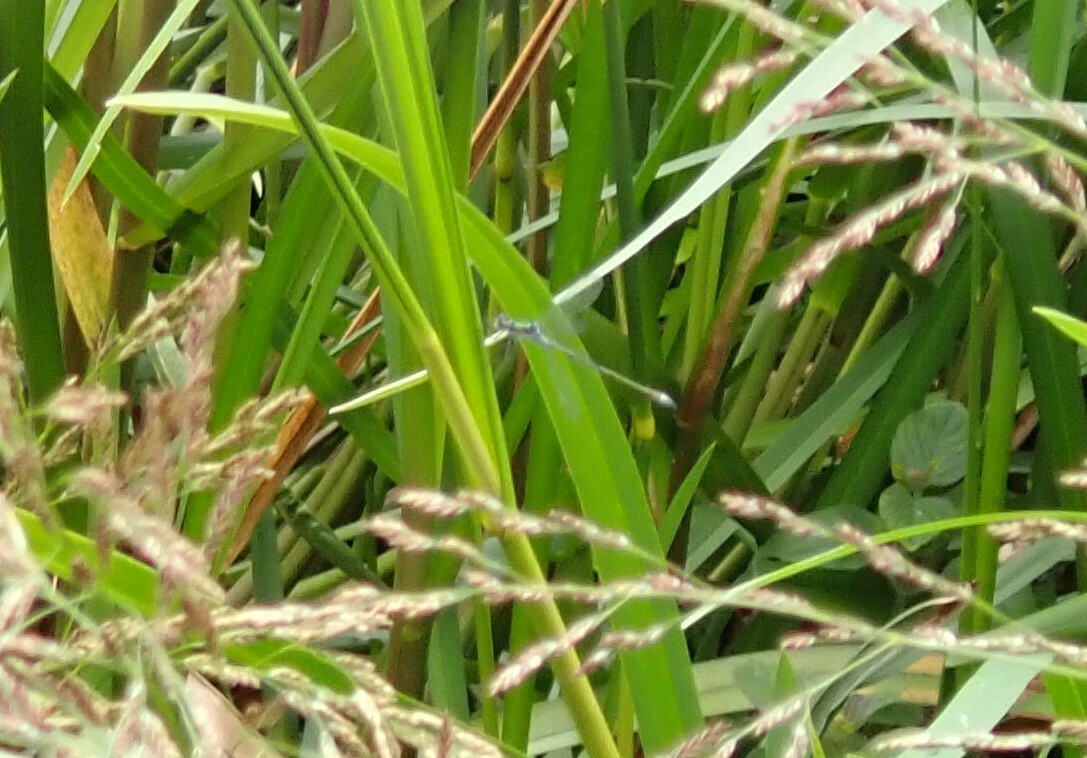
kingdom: Animalia
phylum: Arthropoda
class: Insecta
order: Odonata
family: Lestidae
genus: Lestes
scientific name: Lestes sponsa
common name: Common spreadwing
